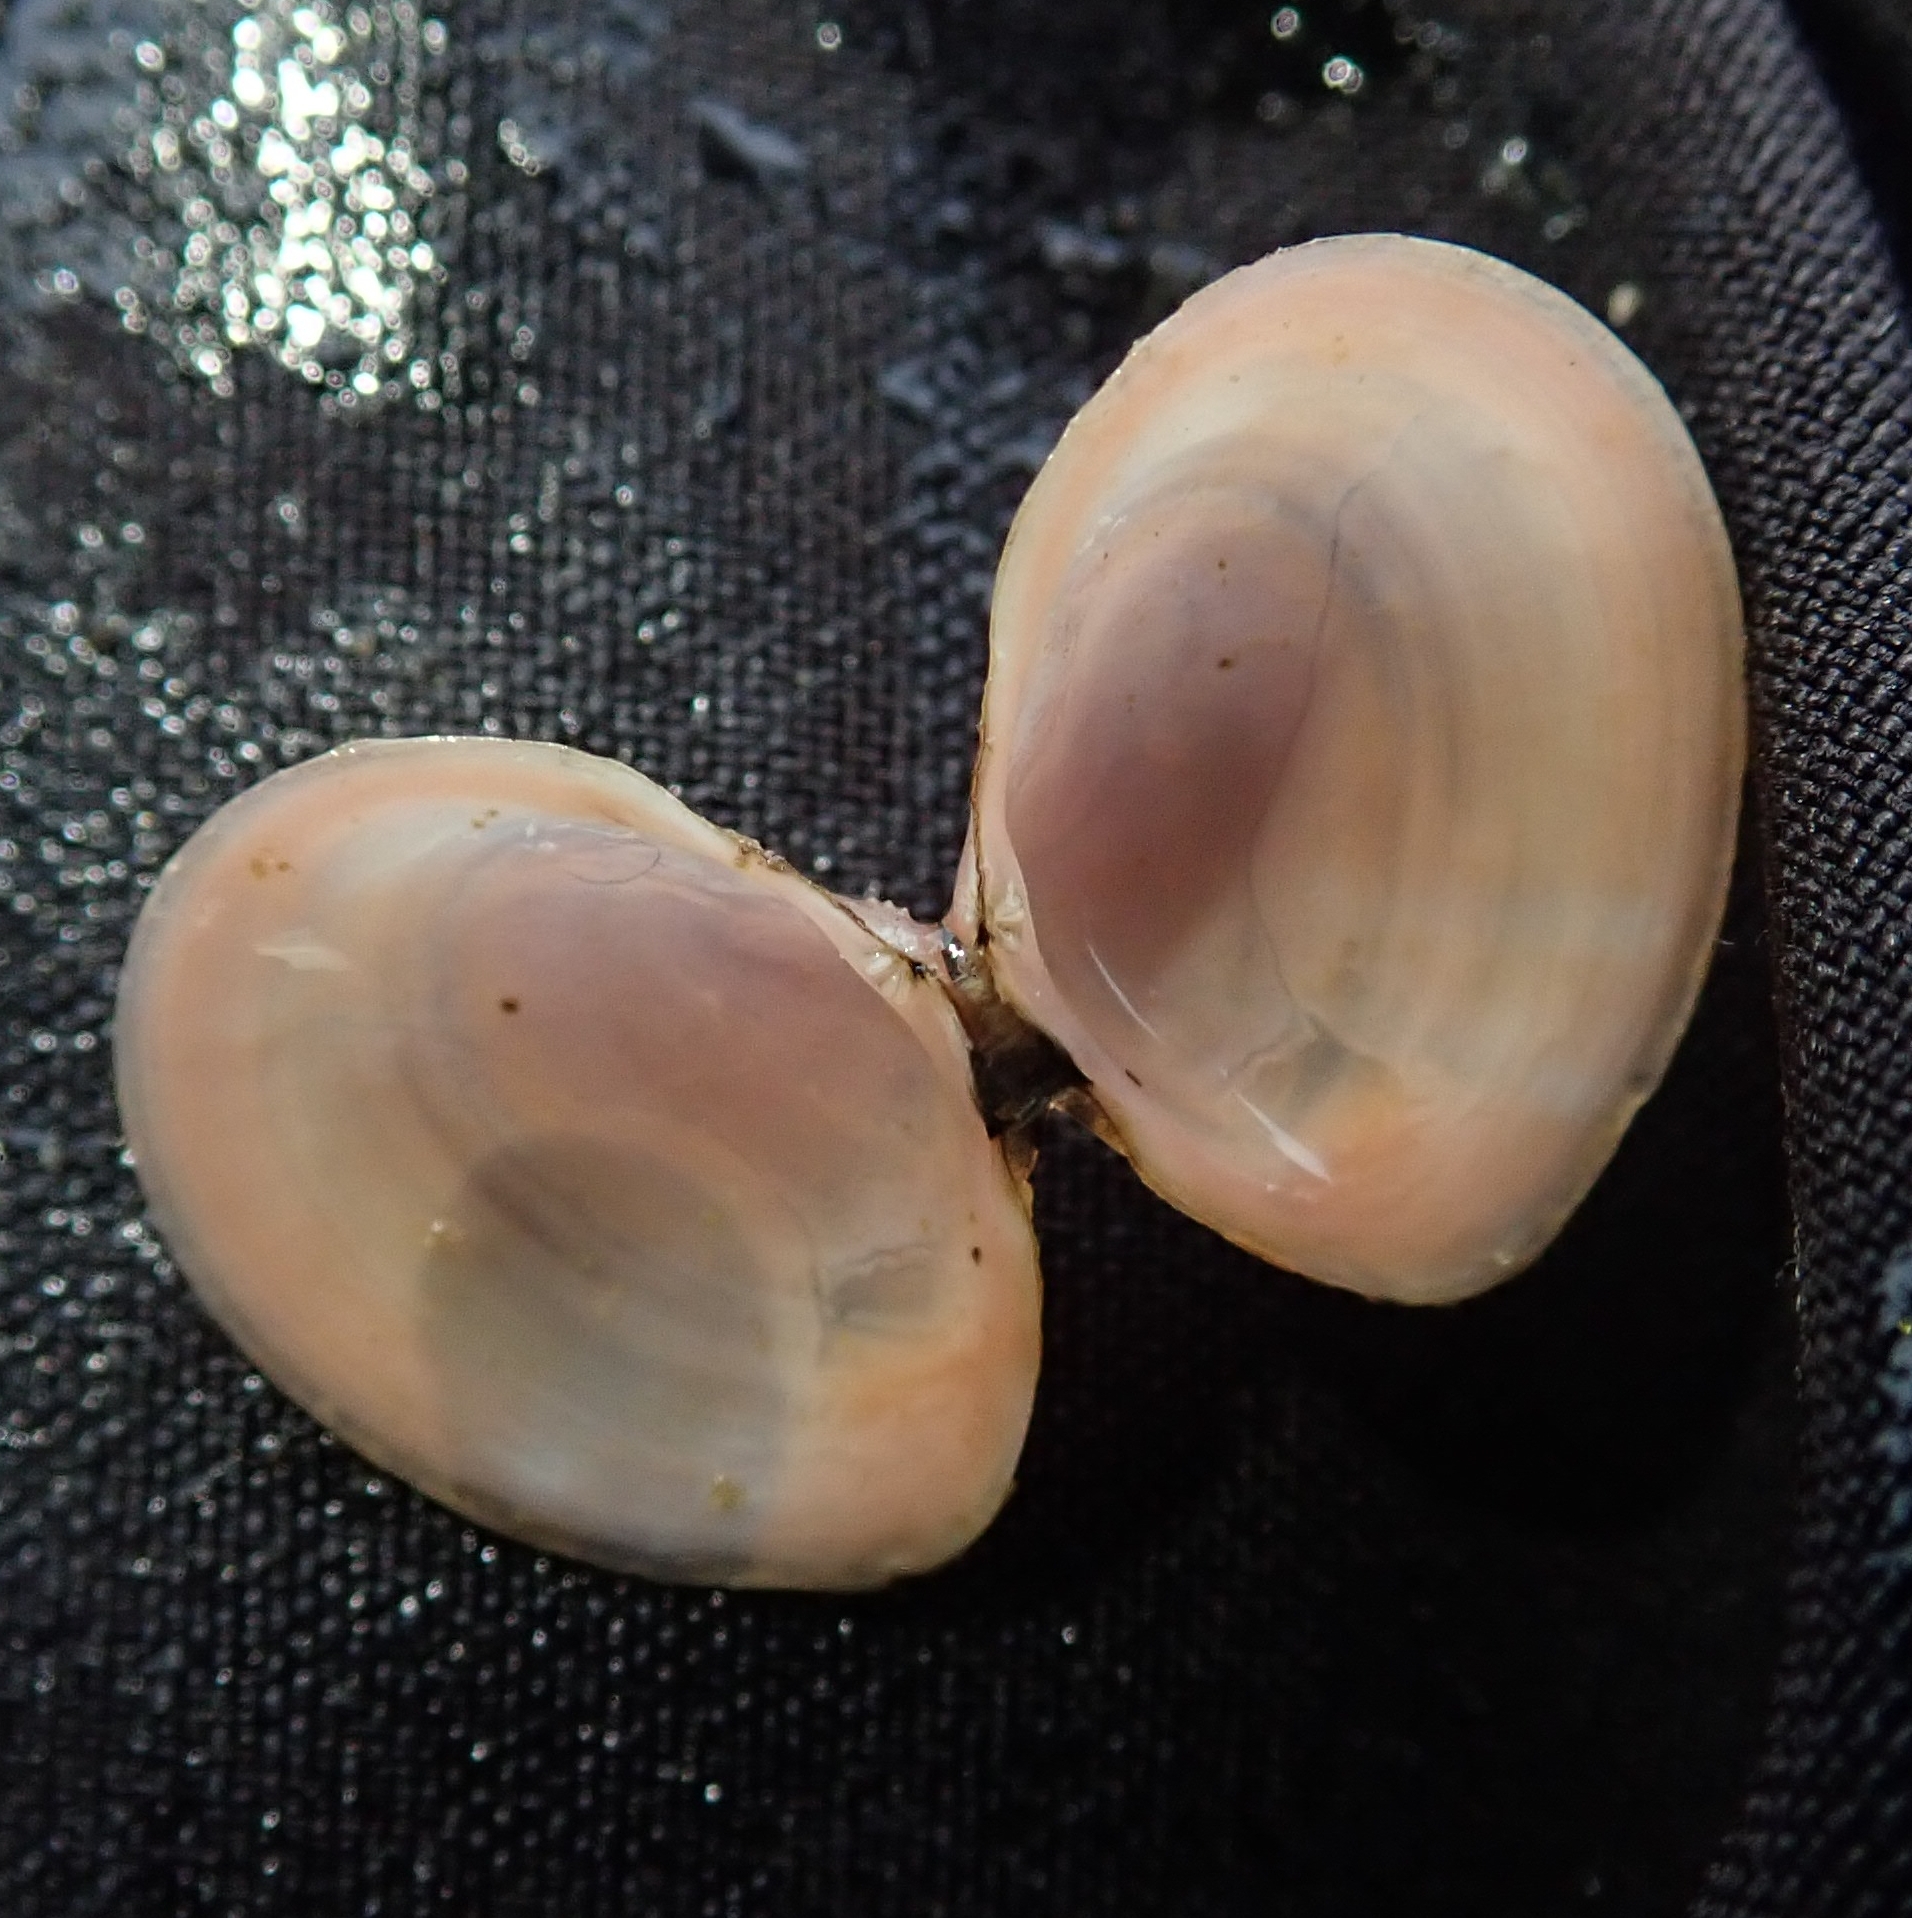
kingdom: Animalia
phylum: Mollusca
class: Bivalvia
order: Cardiida
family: Tellinidae
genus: Macoma
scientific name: Macoma balthica
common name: Baltic tellin
